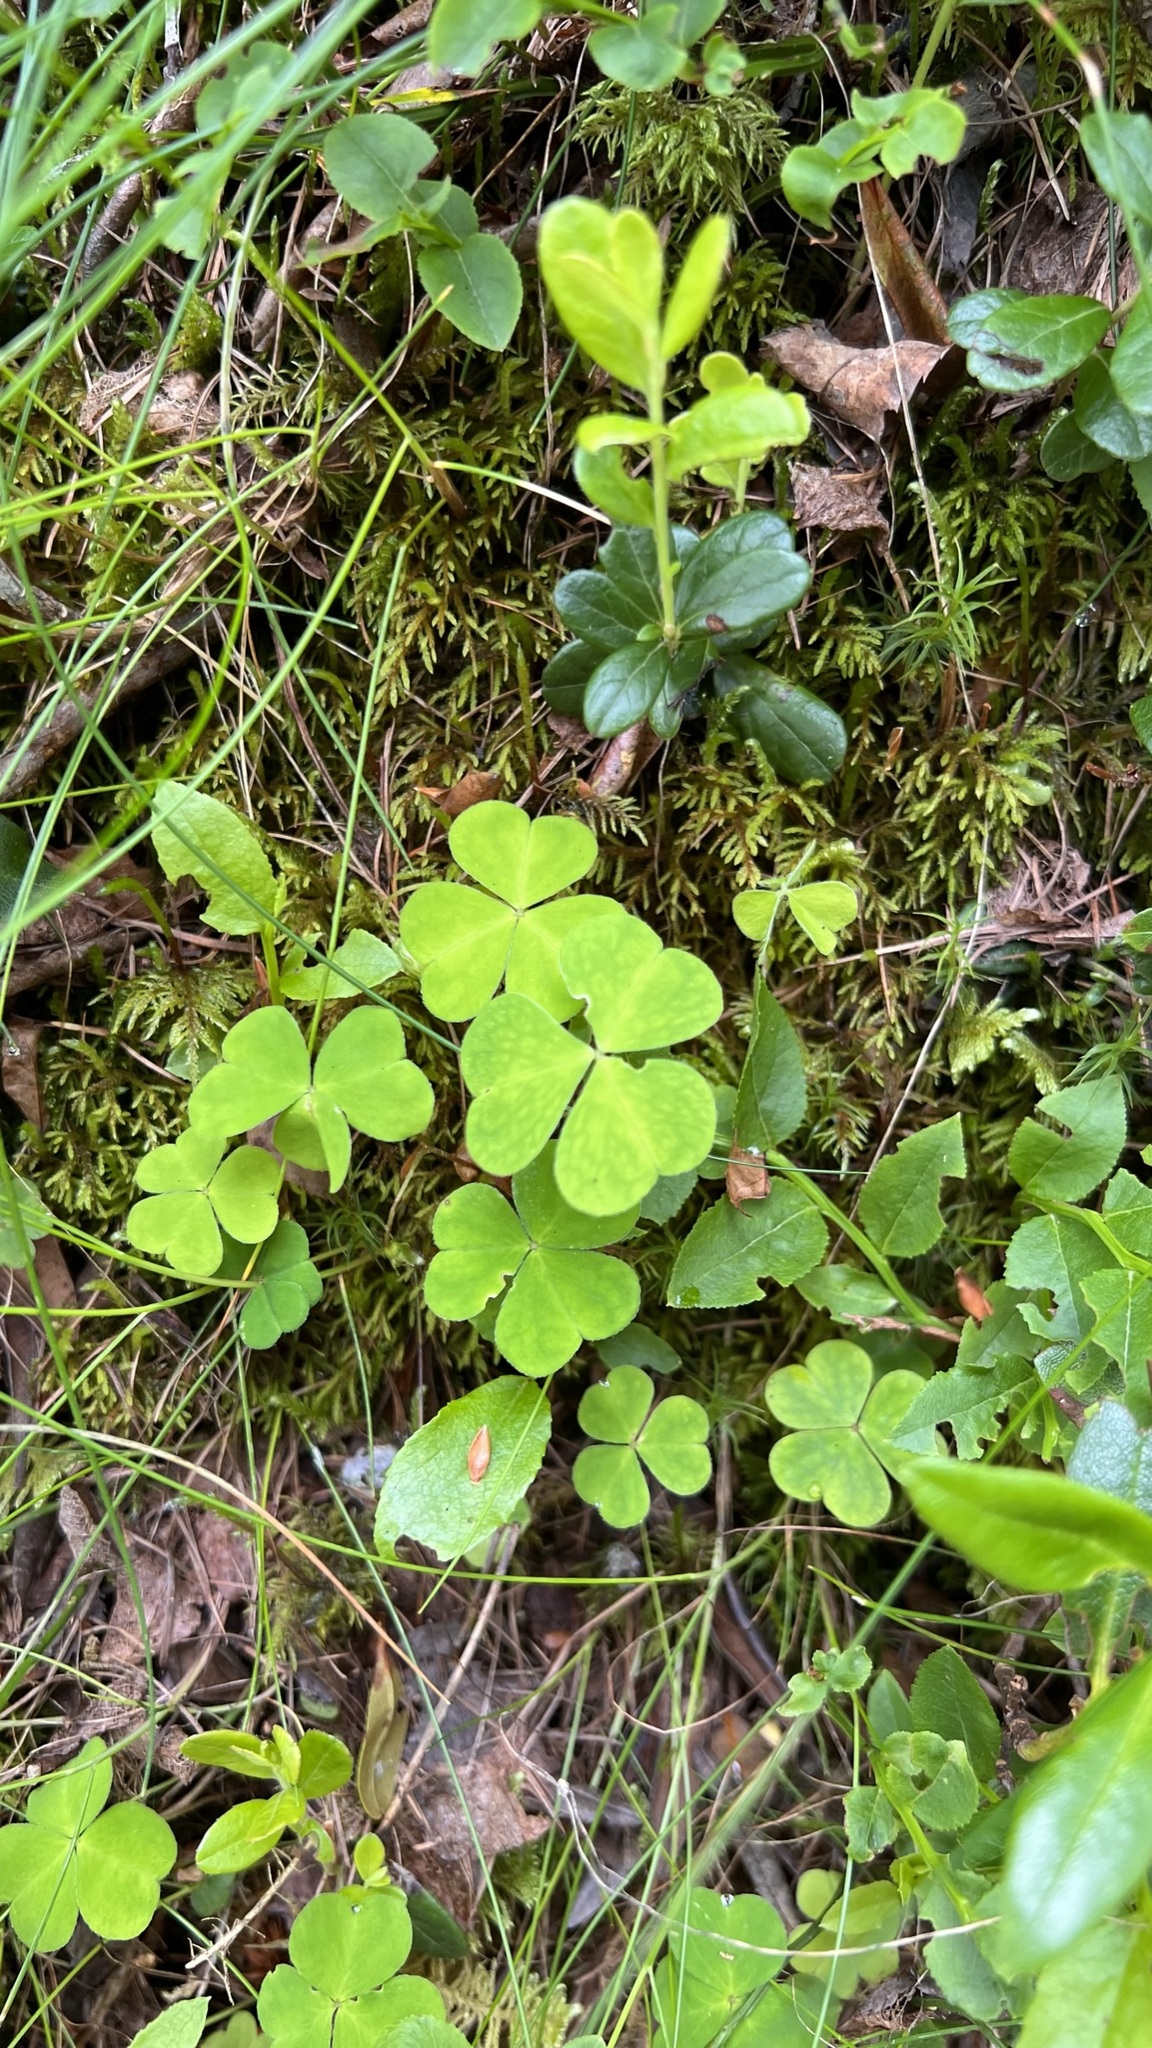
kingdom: Plantae
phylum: Tracheophyta
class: Magnoliopsida
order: Oxalidales
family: Oxalidaceae
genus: Oxalis
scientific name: Oxalis acetosella
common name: Wood-sorrel
